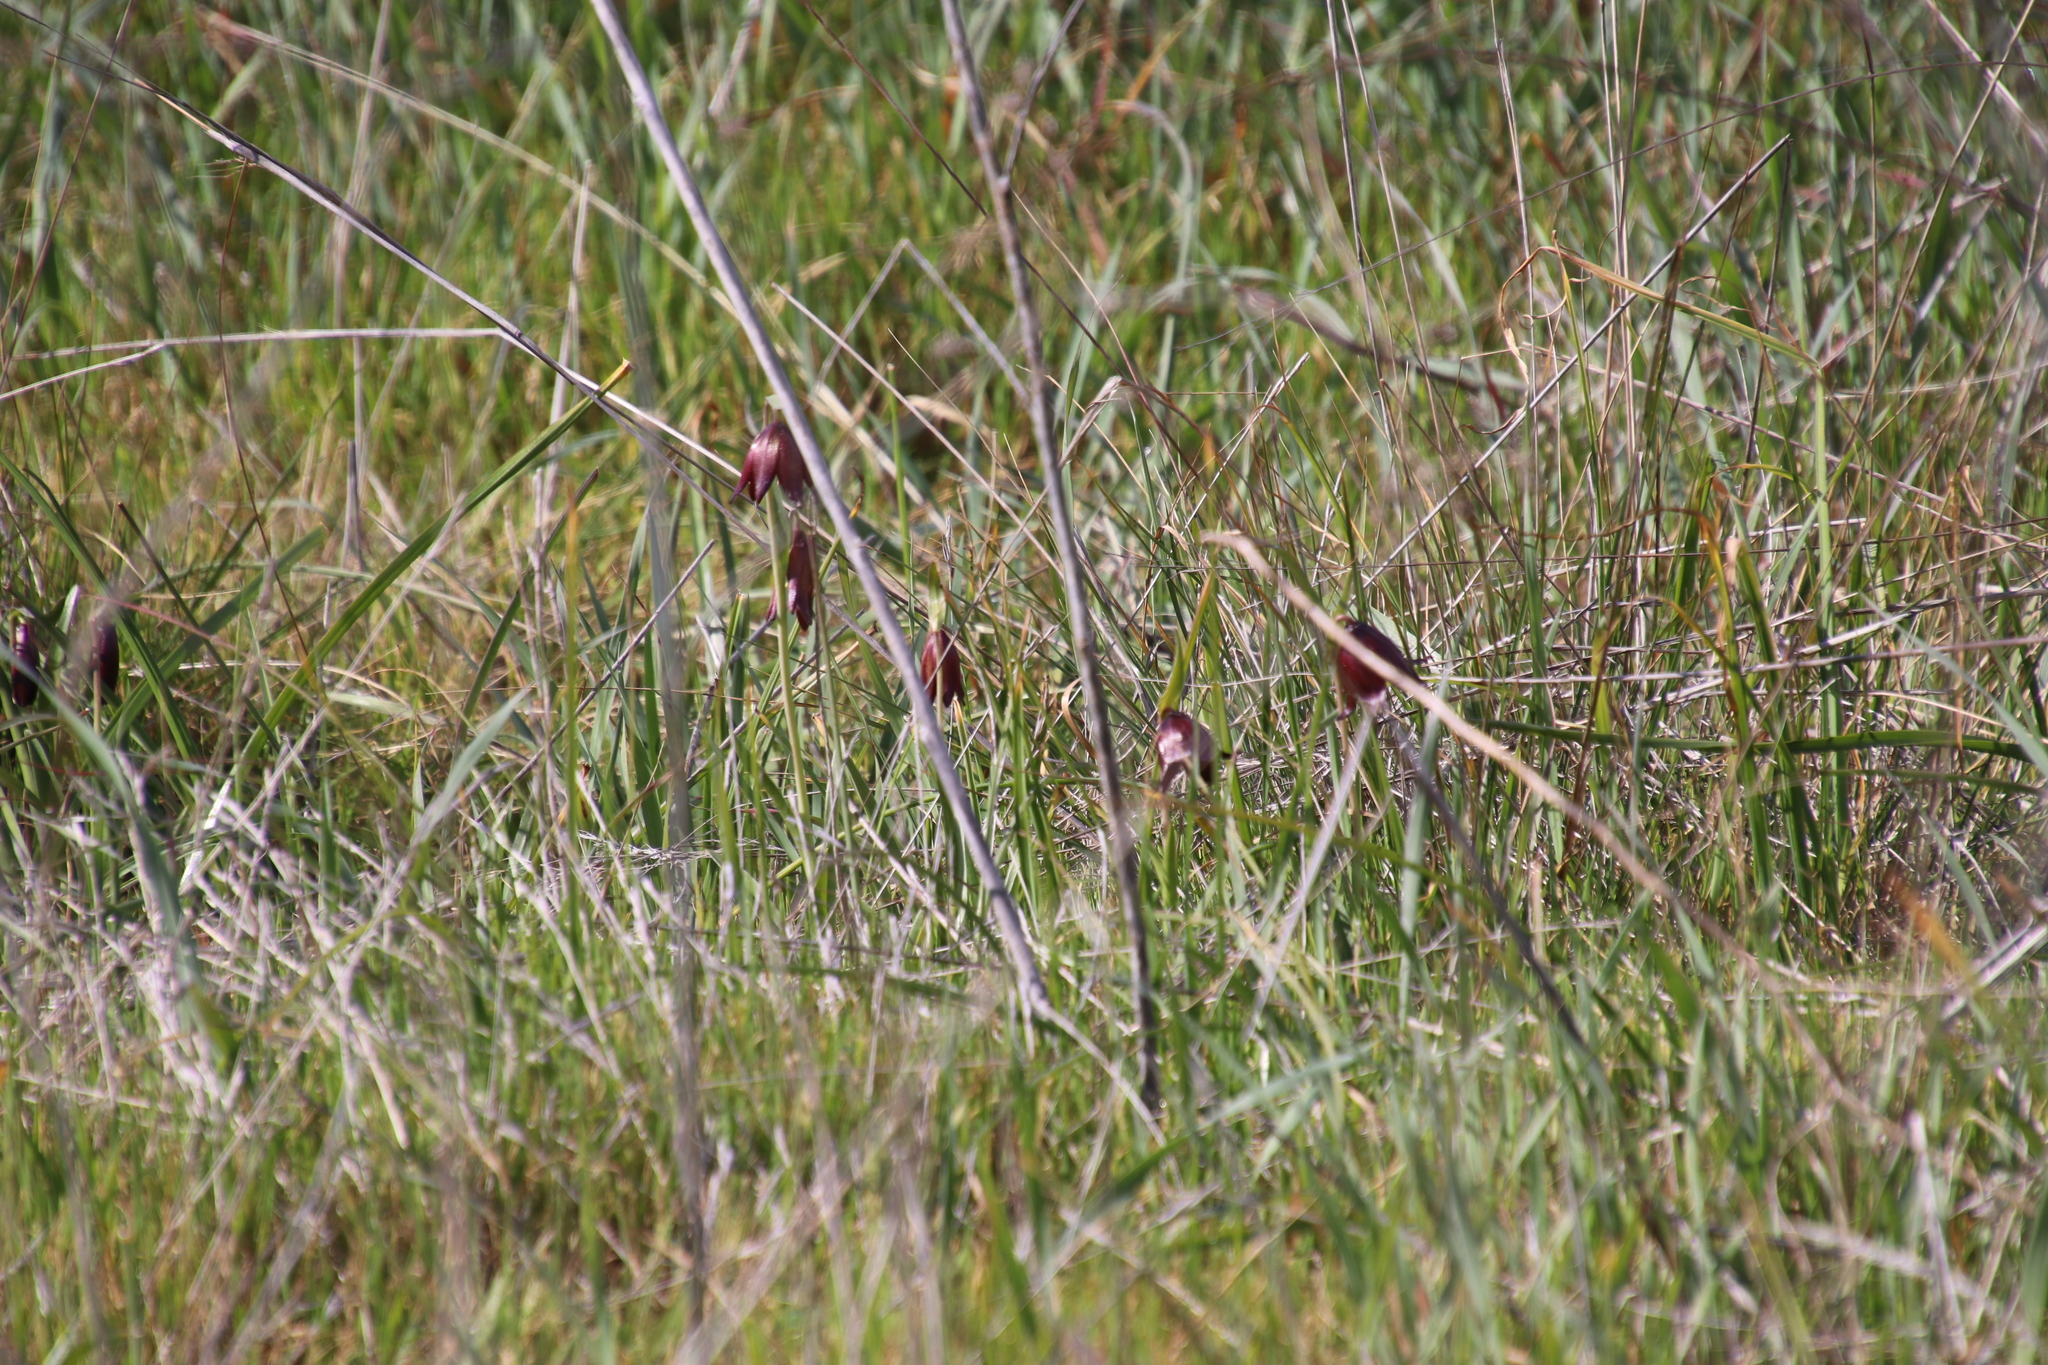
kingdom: Plantae
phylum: Tracheophyta
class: Liliopsida
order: Liliales
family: Liliaceae
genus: Fritillaria
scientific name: Fritillaria biflora
